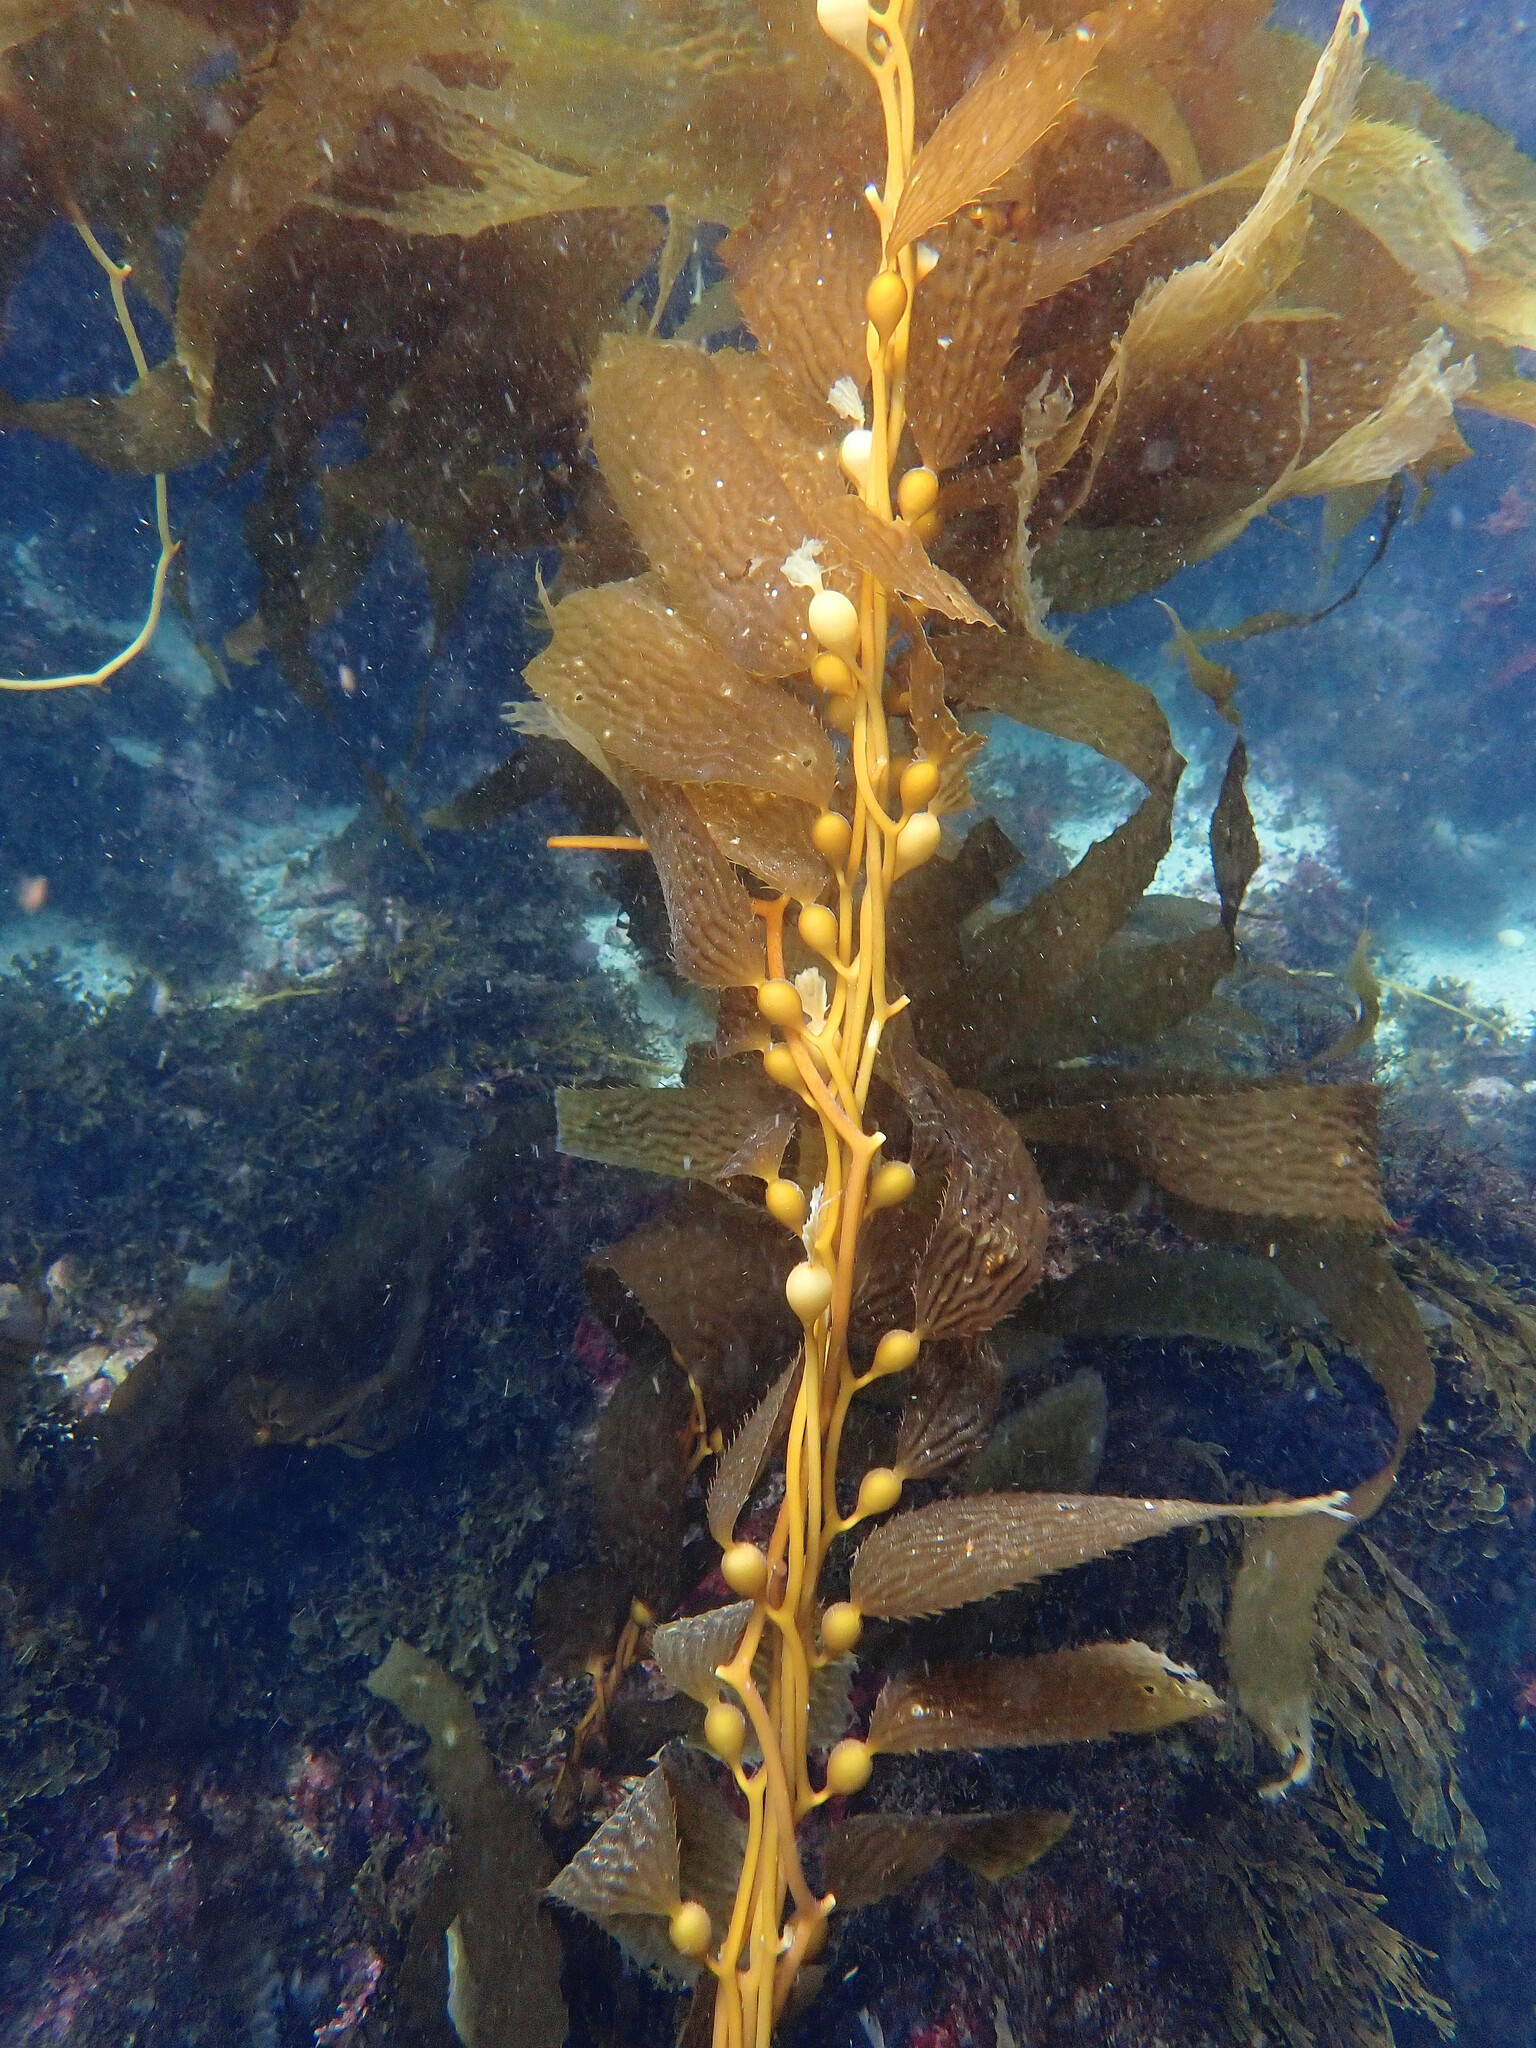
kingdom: Chromista
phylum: Ochrophyta
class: Phaeophyceae
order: Laminariales
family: Laminariaceae
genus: Macrocystis
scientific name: Macrocystis pyrifera
